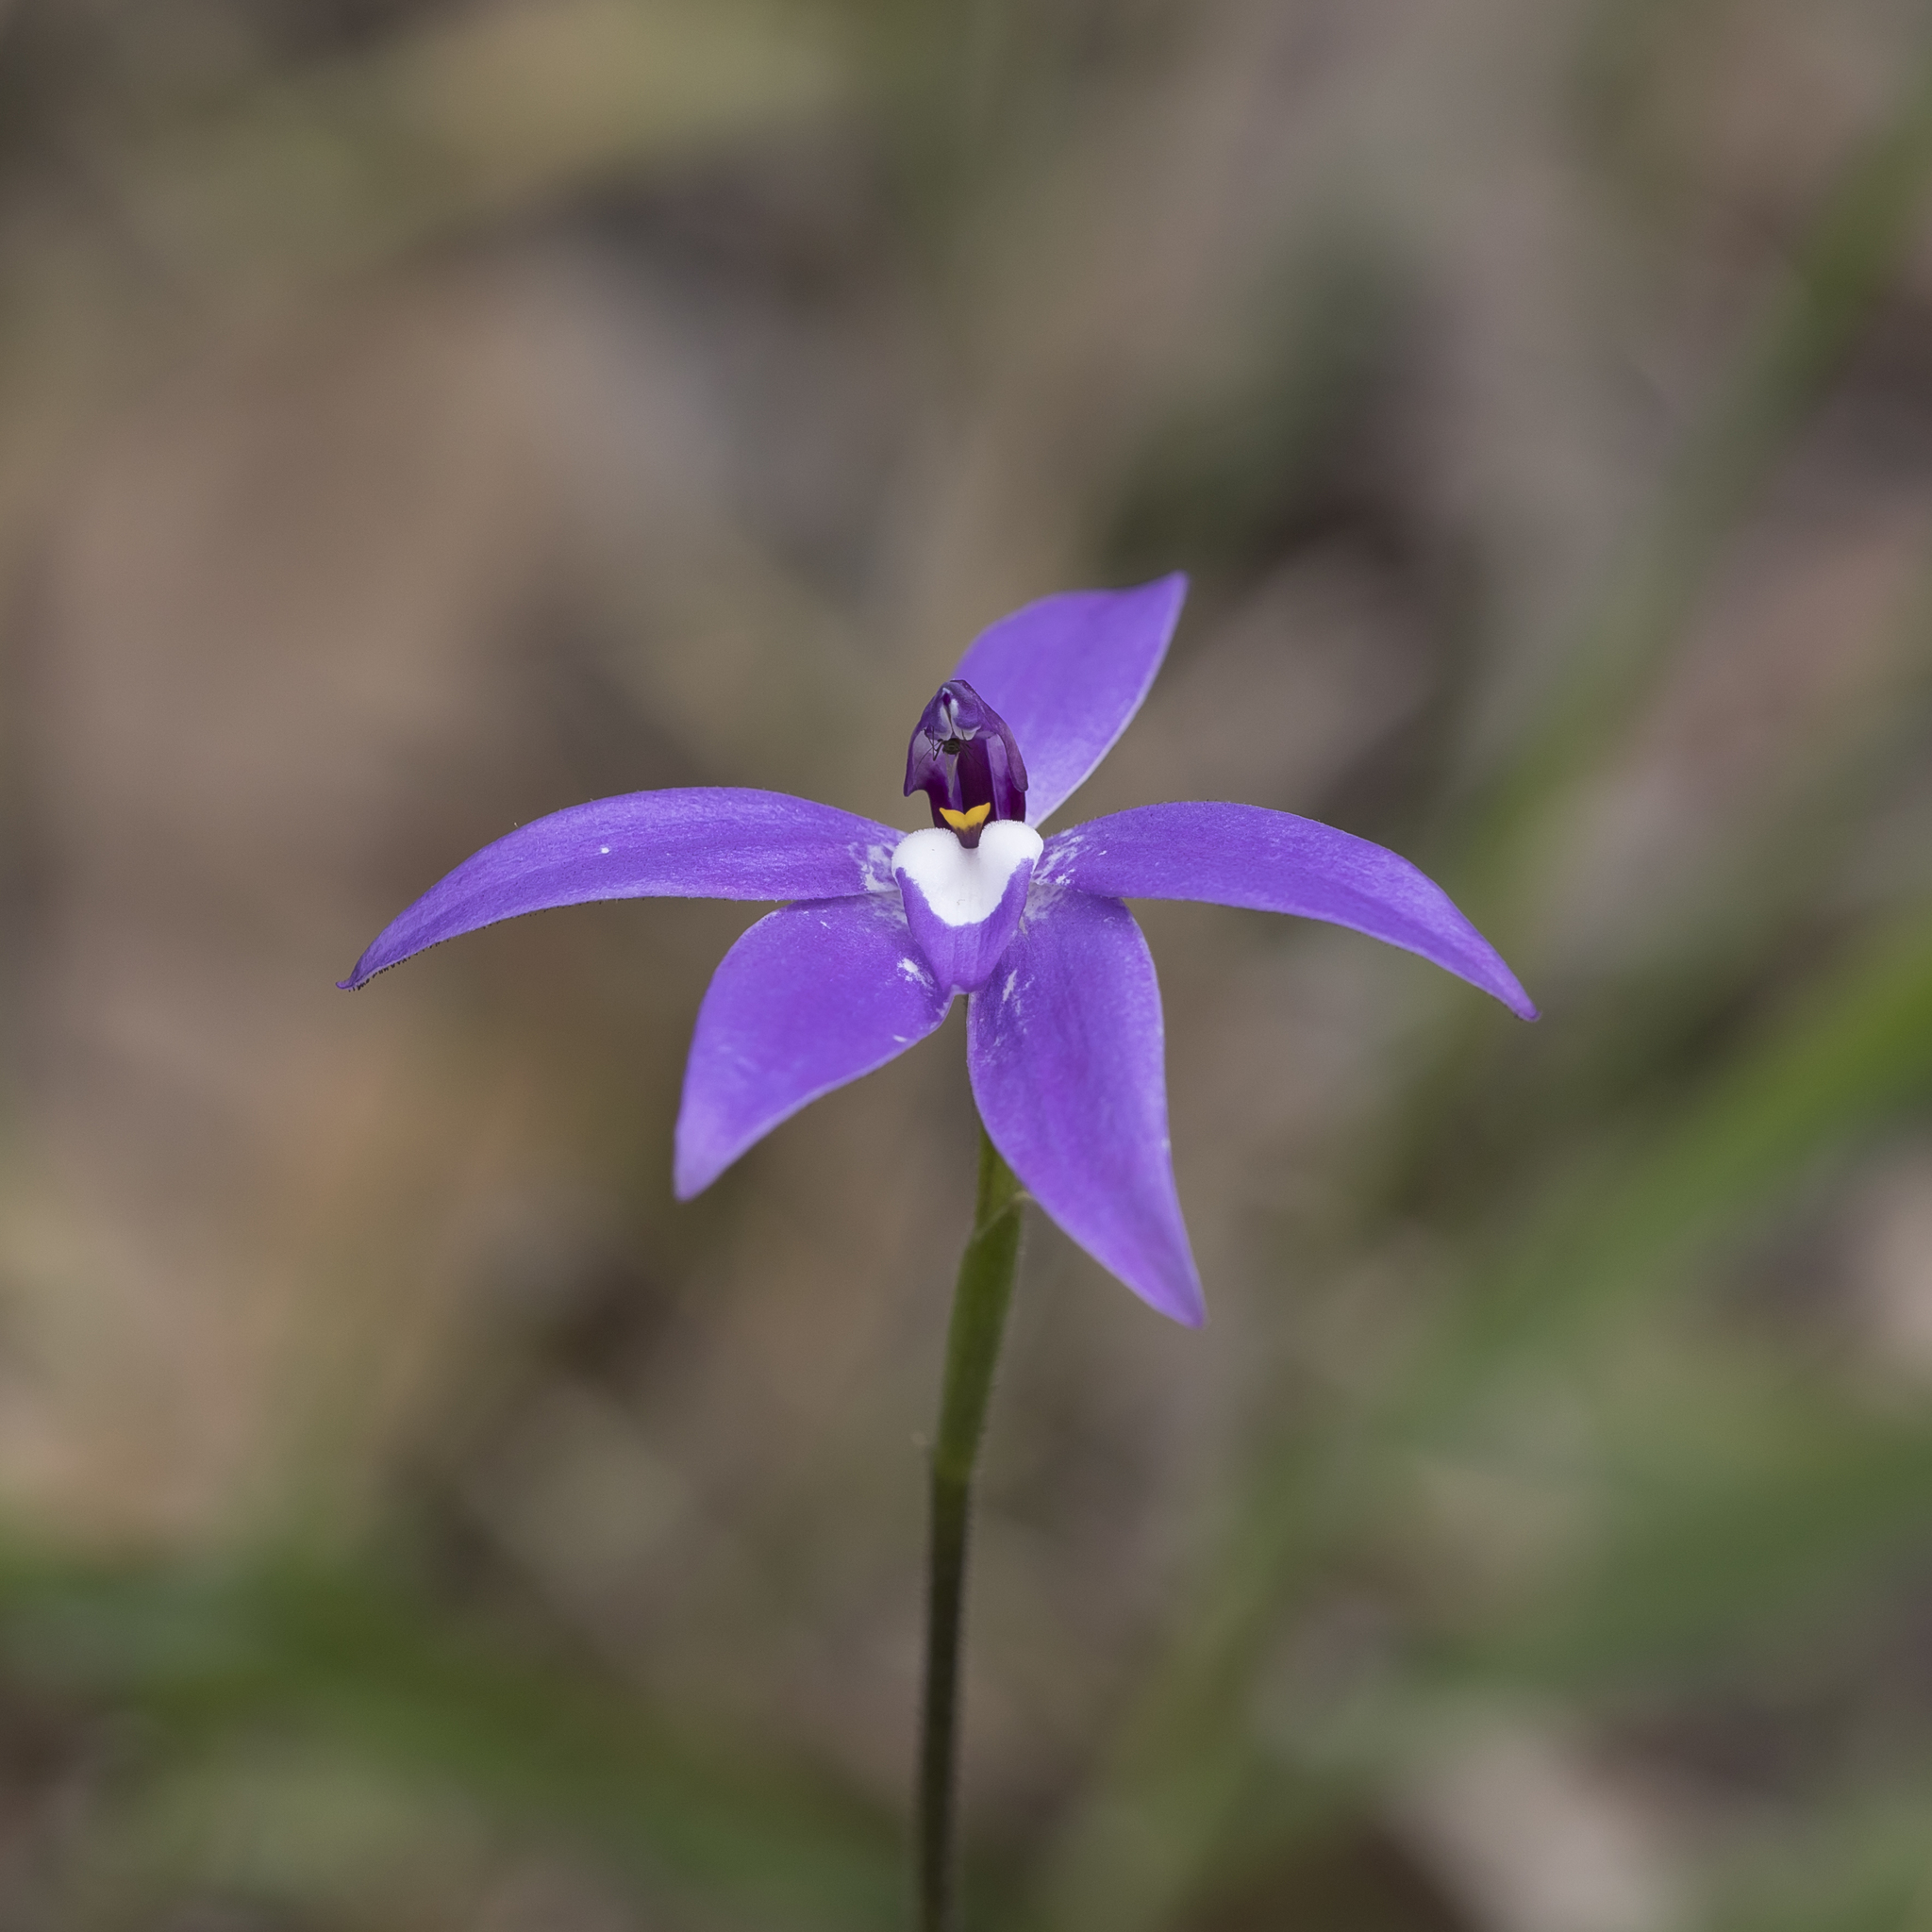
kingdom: Plantae
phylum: Tracheophyta
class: Liliopsida
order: Asparagales
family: Orchidaceae
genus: Caladenia
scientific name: Caladenia major
